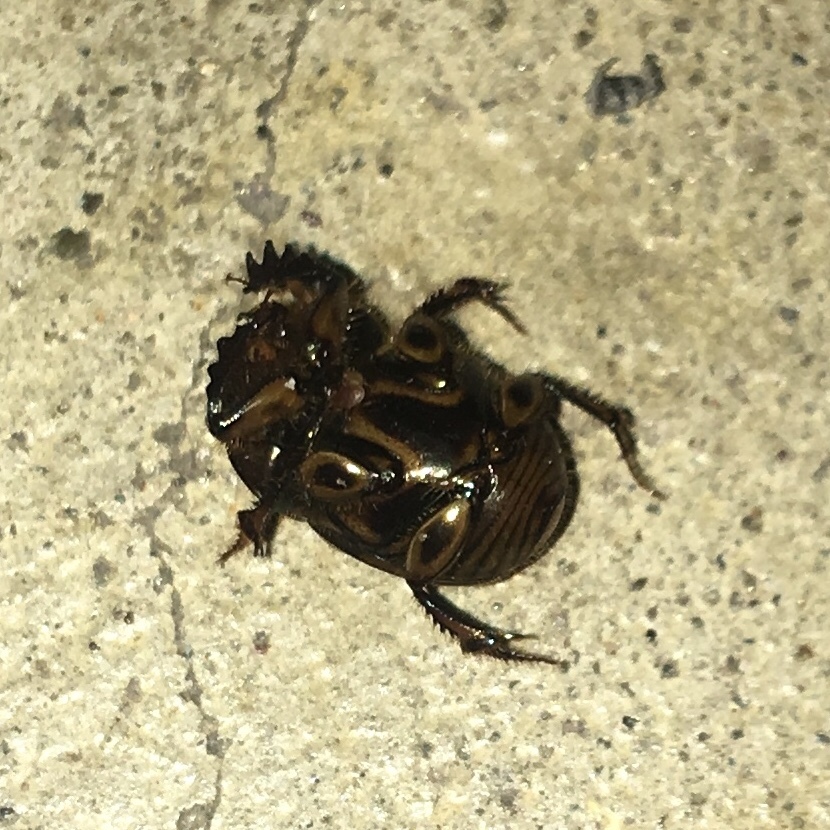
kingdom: Animalia
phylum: Arthropoda
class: Insecta
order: Coleoptera
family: Scarabaeidae
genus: Digitonthophagus
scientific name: Digitonthophagus gazella
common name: Brown dung beetle
